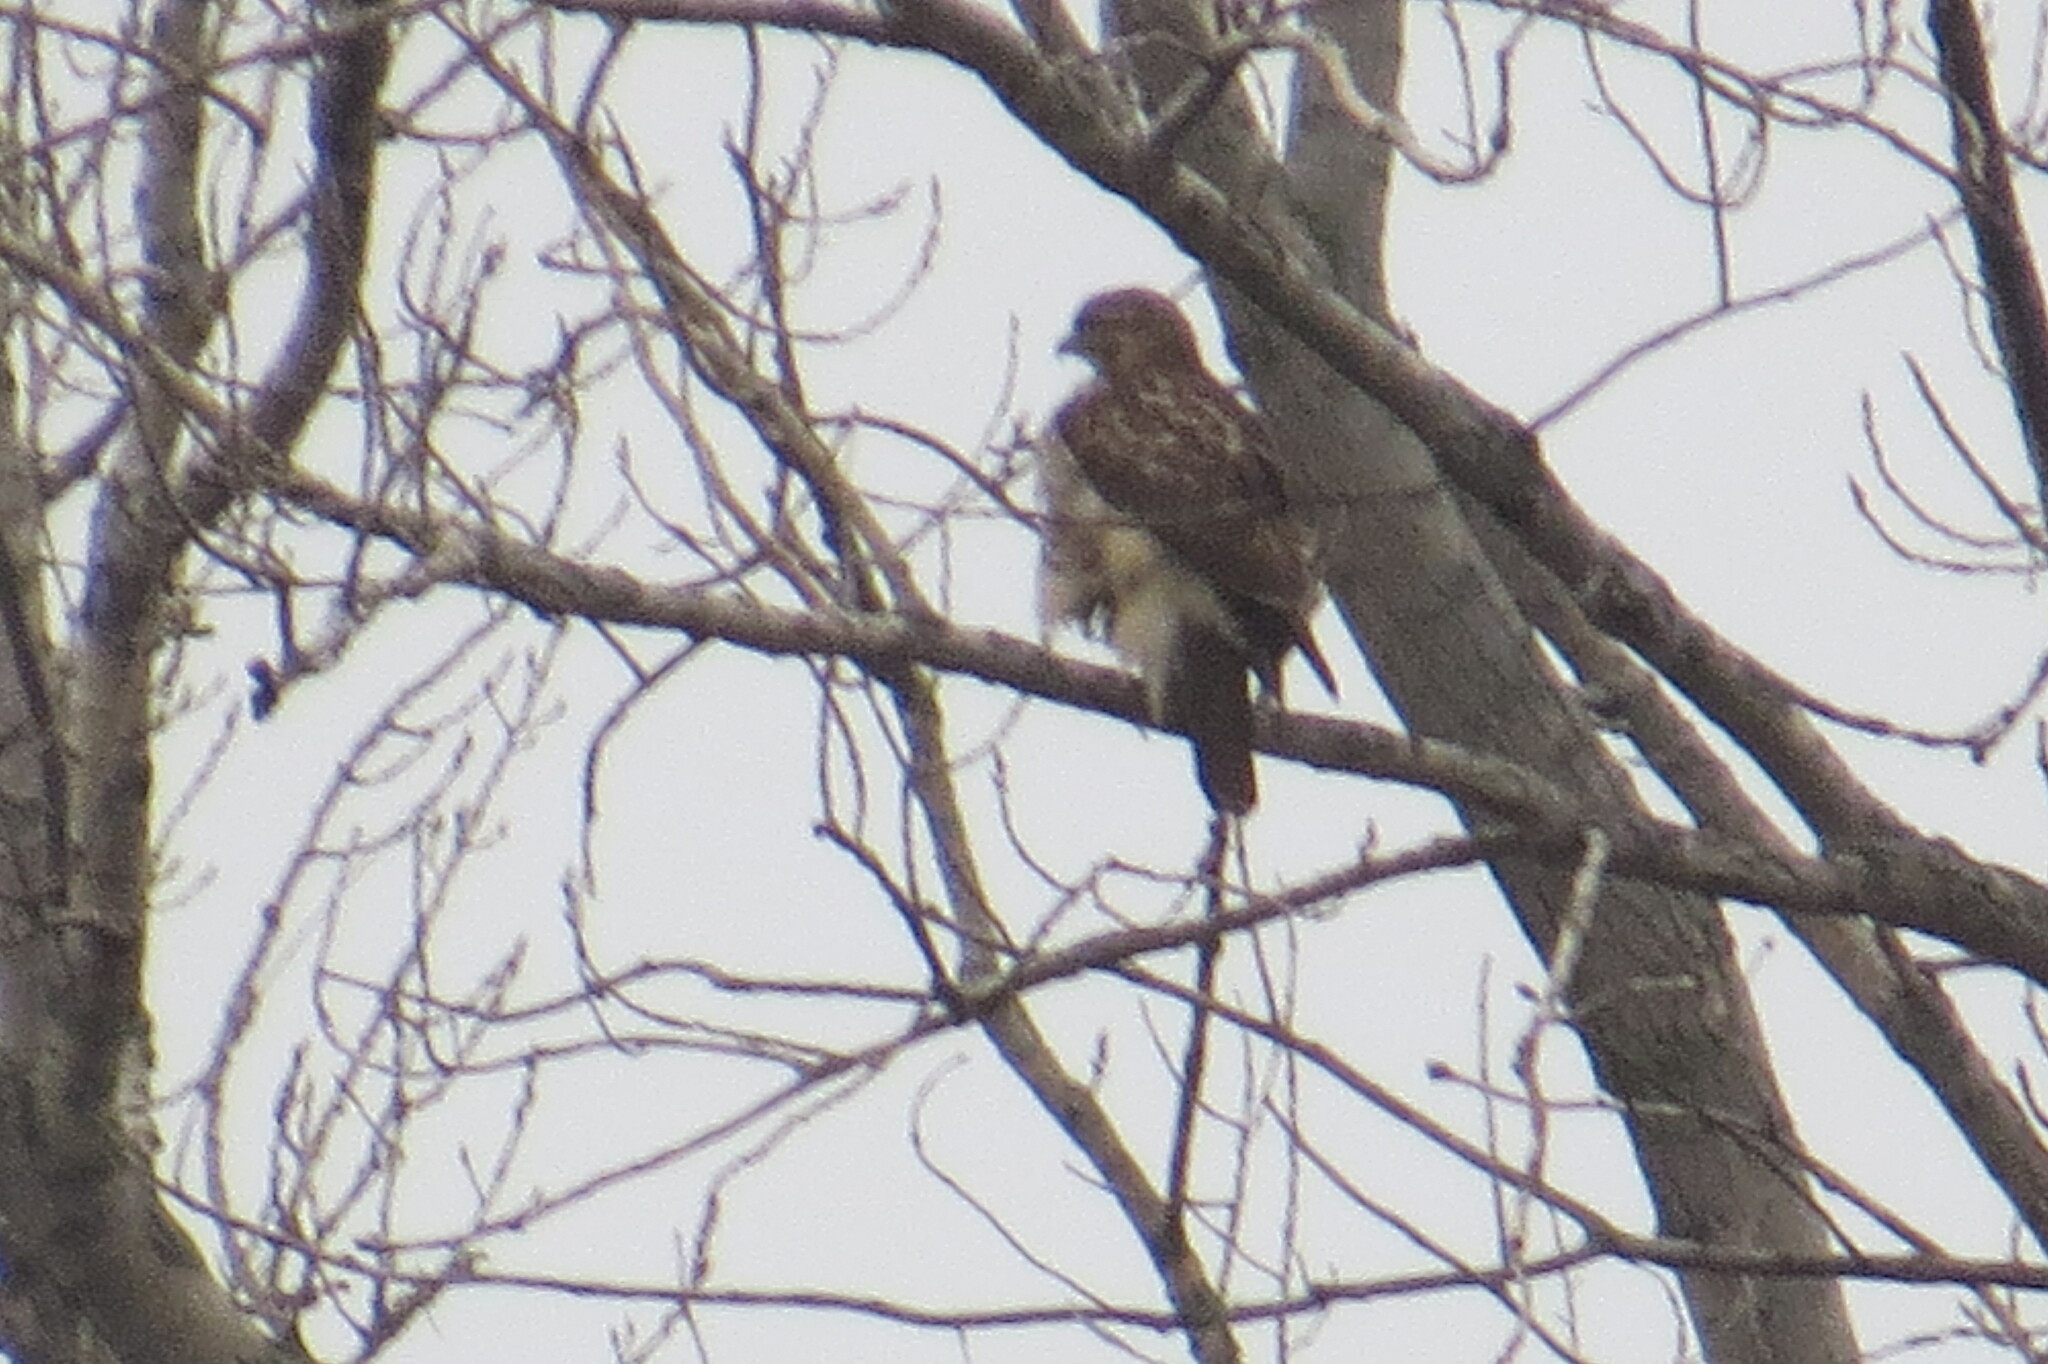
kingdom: Animalia
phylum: Chordata
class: Aves
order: Accipitriformes
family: Accipitridae
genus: Buteo
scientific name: Buteo jamaicensis
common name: Red-tailed hawk
